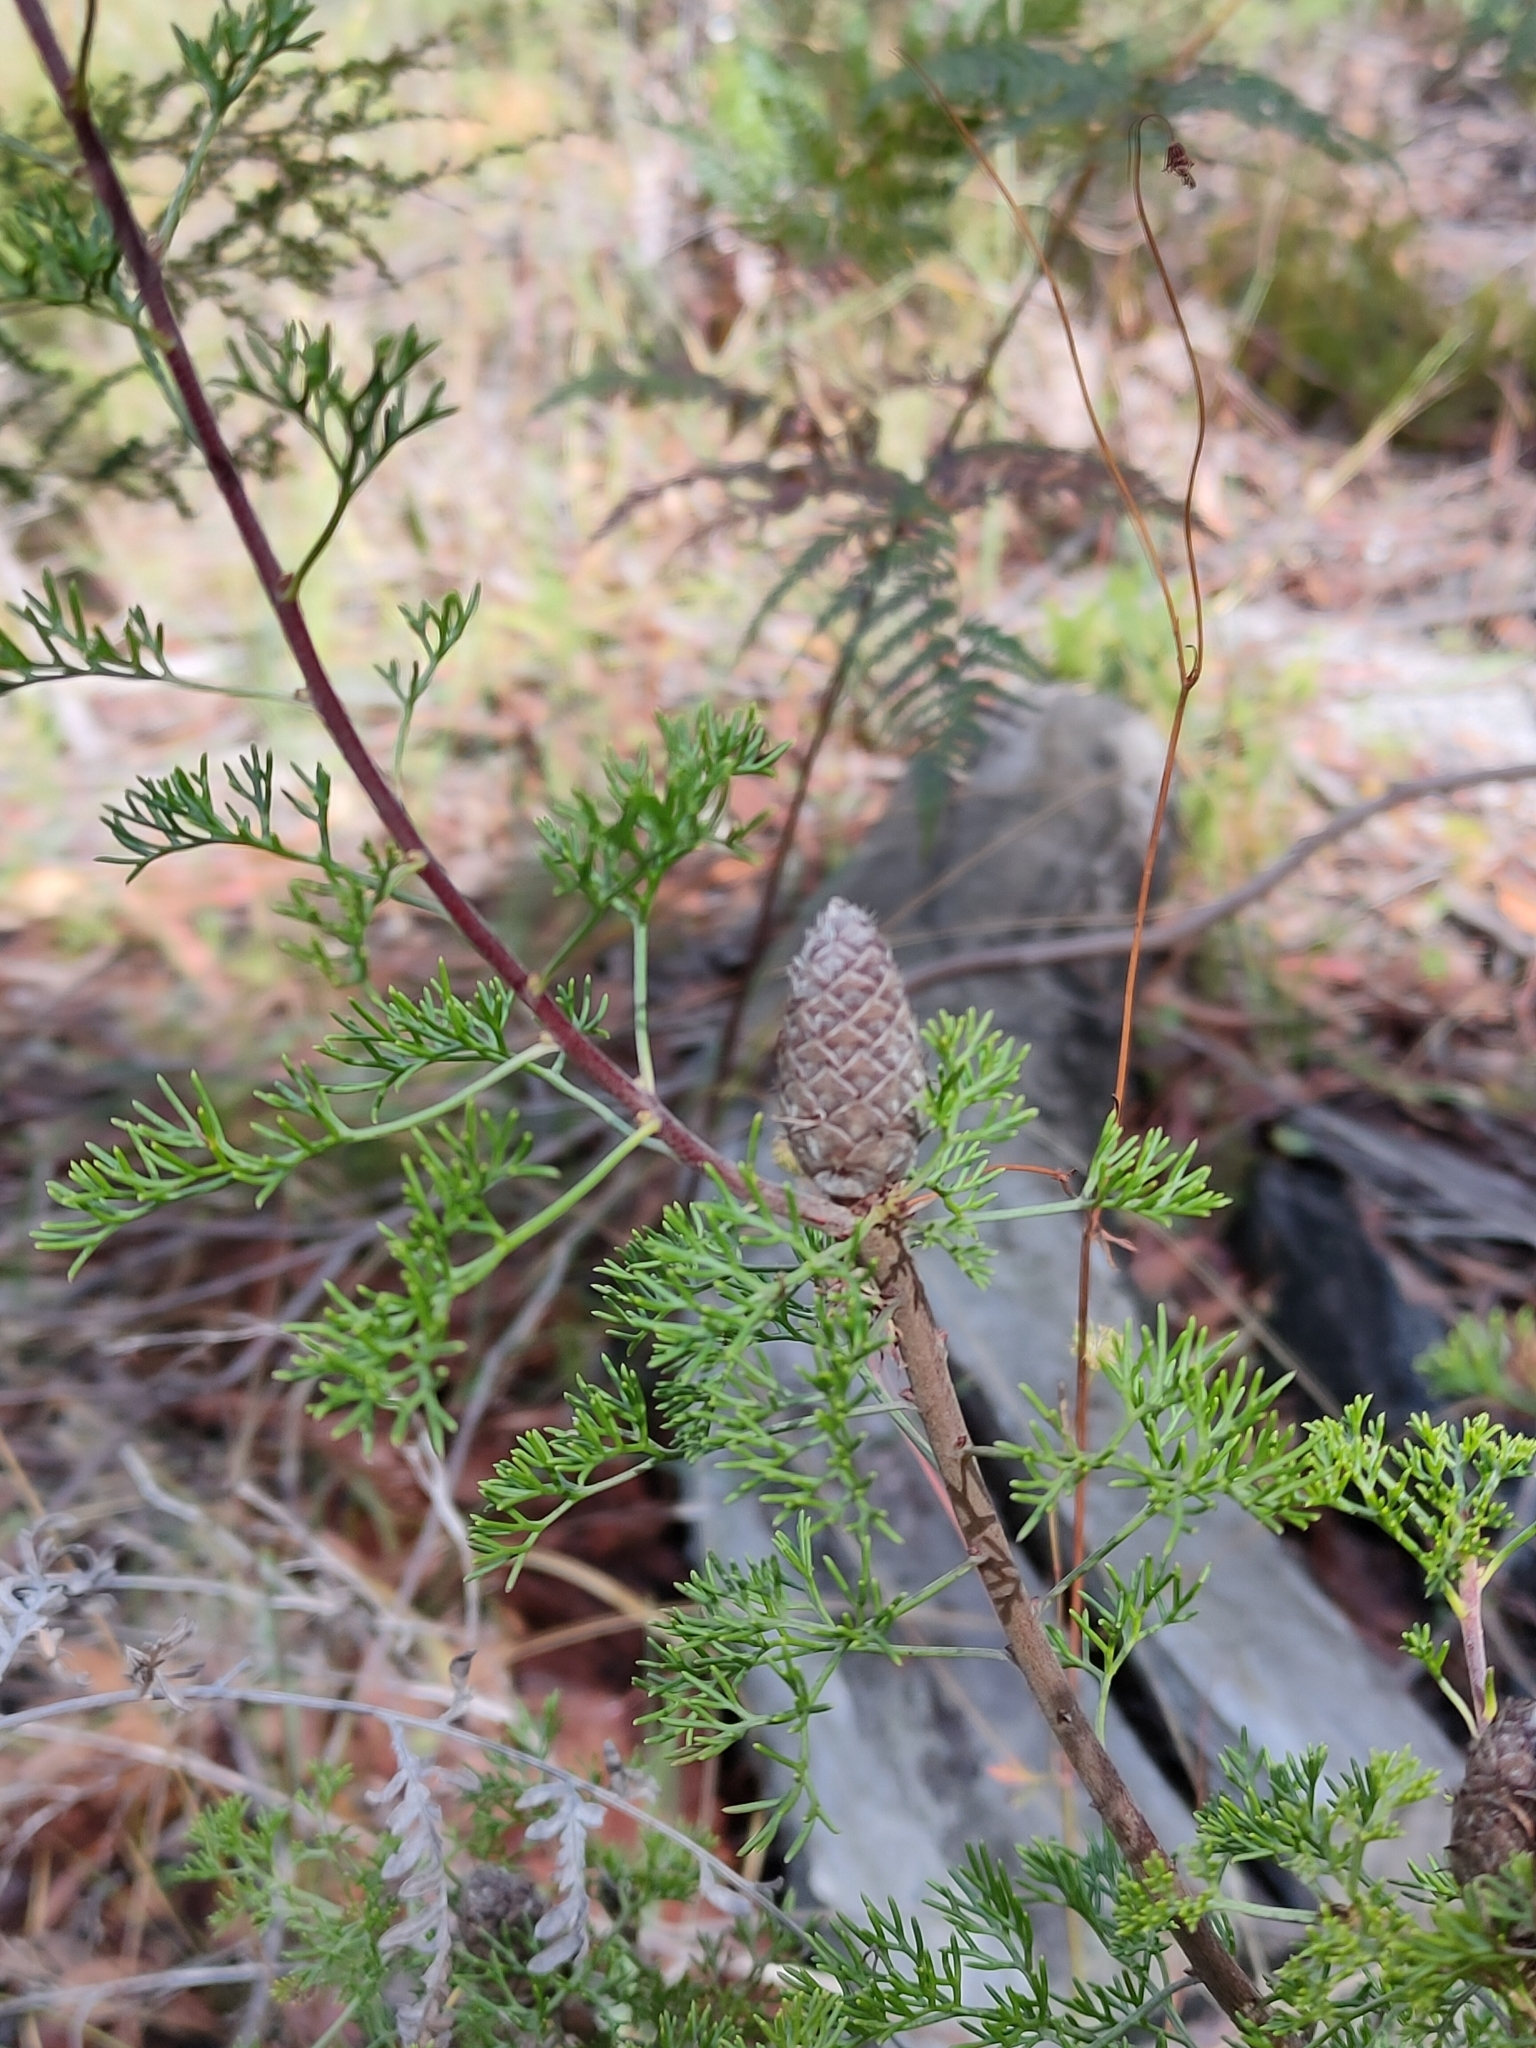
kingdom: Plantae
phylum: Tracheophyta
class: Magnoliopsida
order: Proteales
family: Proteaceae
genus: Petrophile
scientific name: Petrophile canescens
